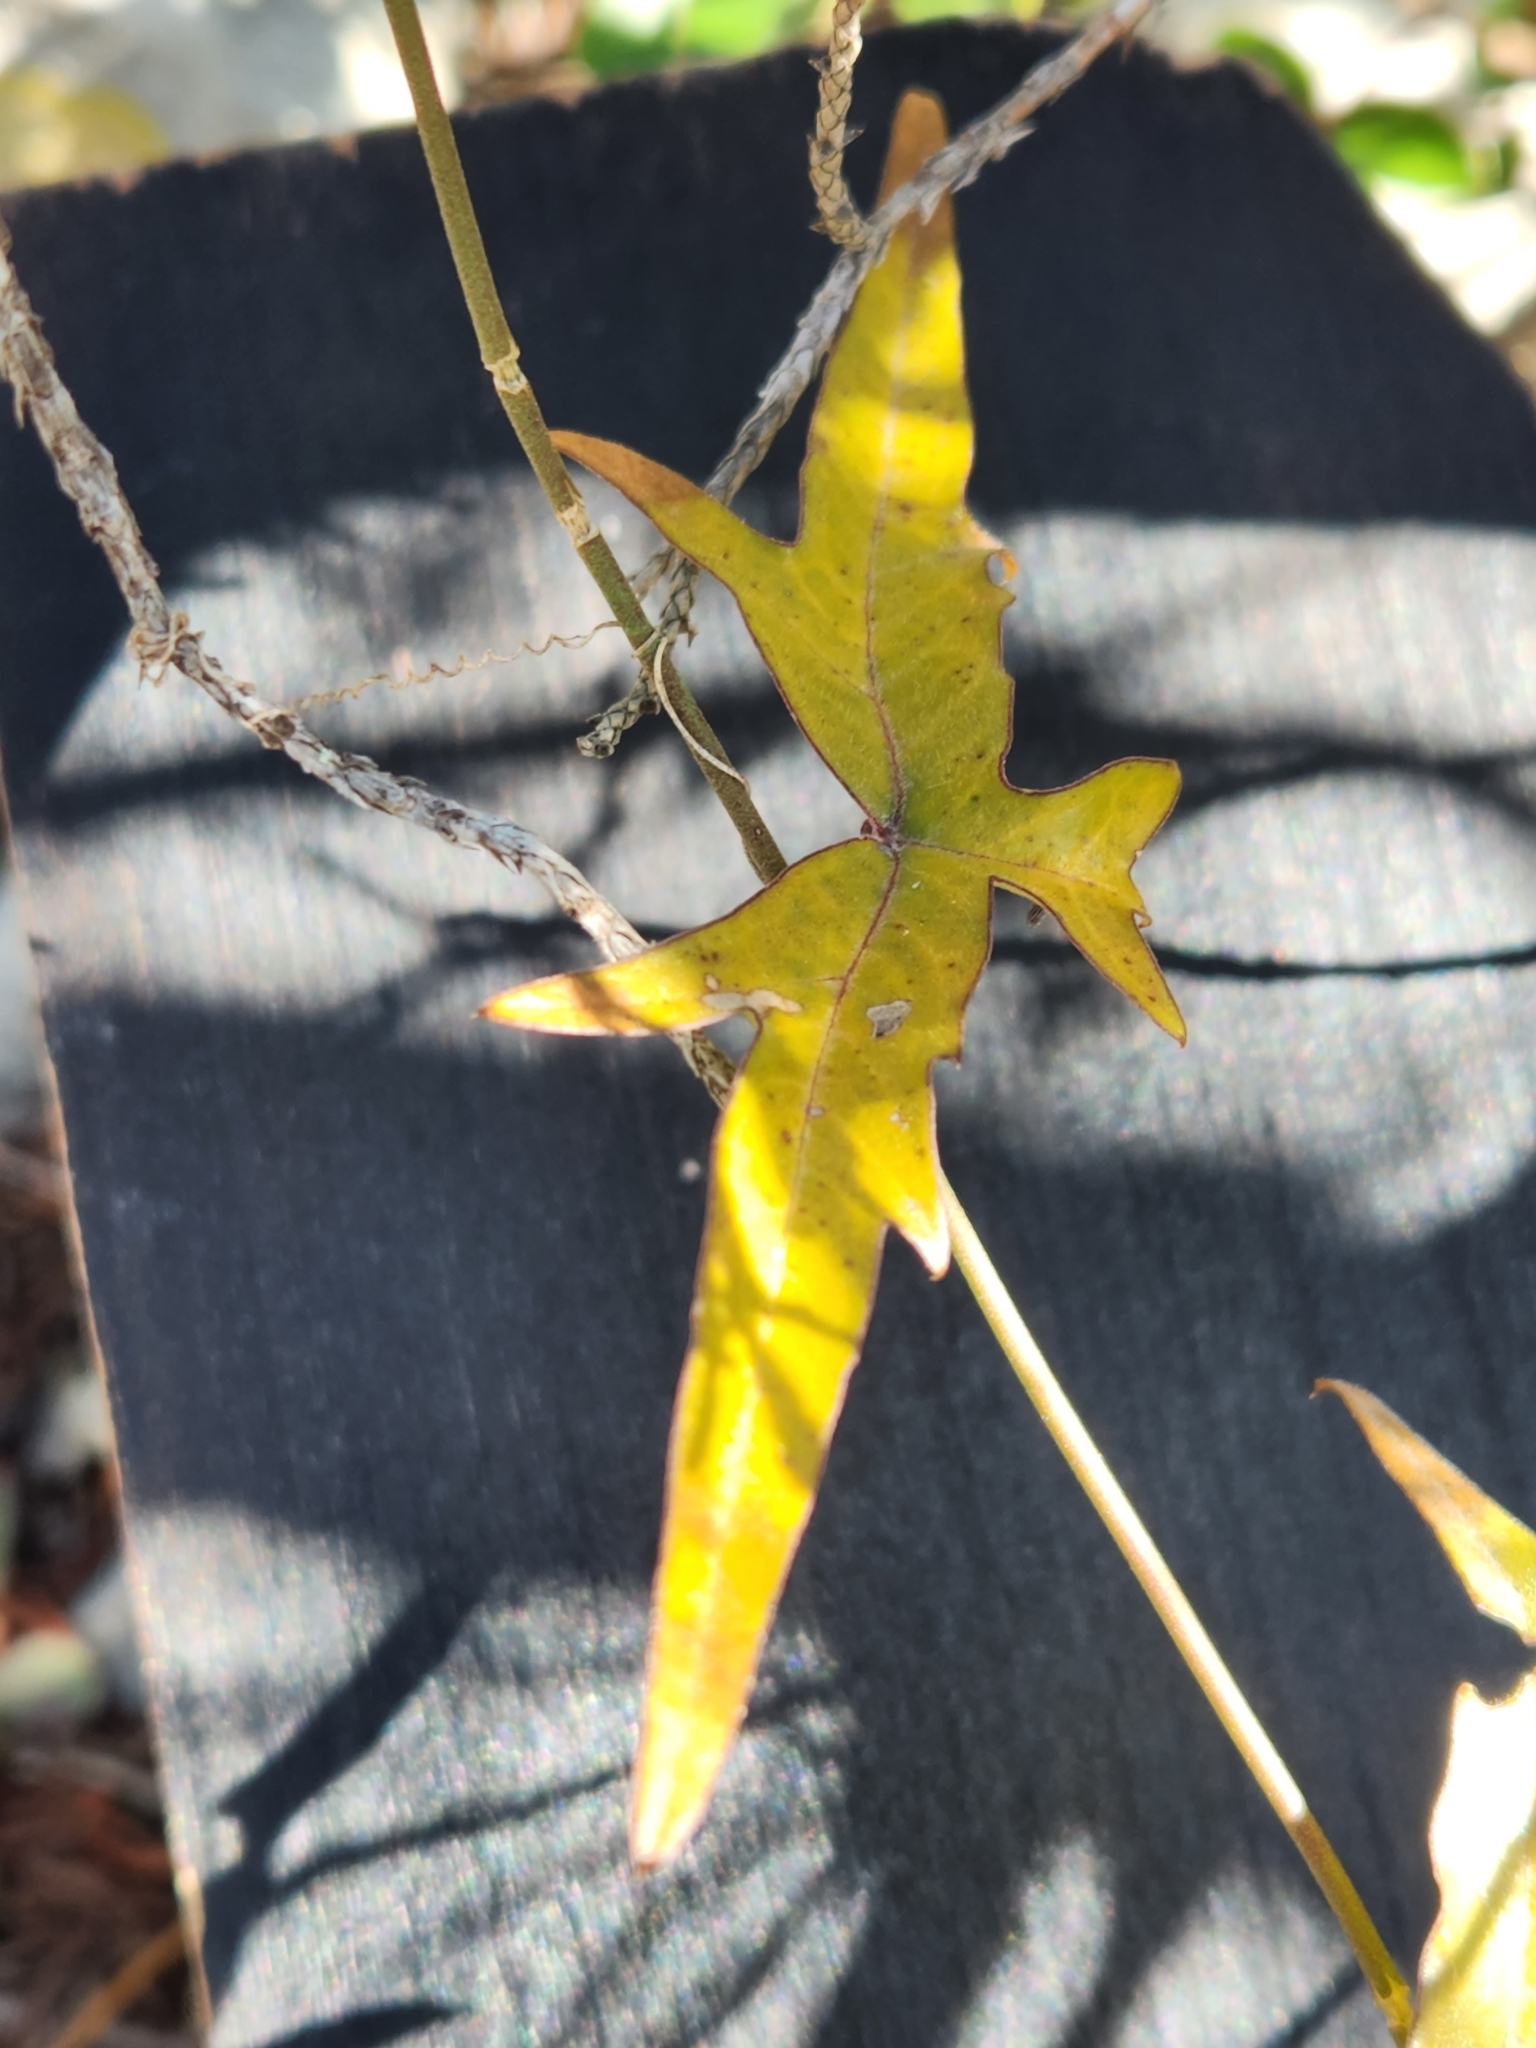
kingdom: Plantae
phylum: Tracheophyta
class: Magnoliopsida
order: Malpighiales
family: Passifloraceae
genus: Passiflora
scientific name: Passiflora tenuiloba
